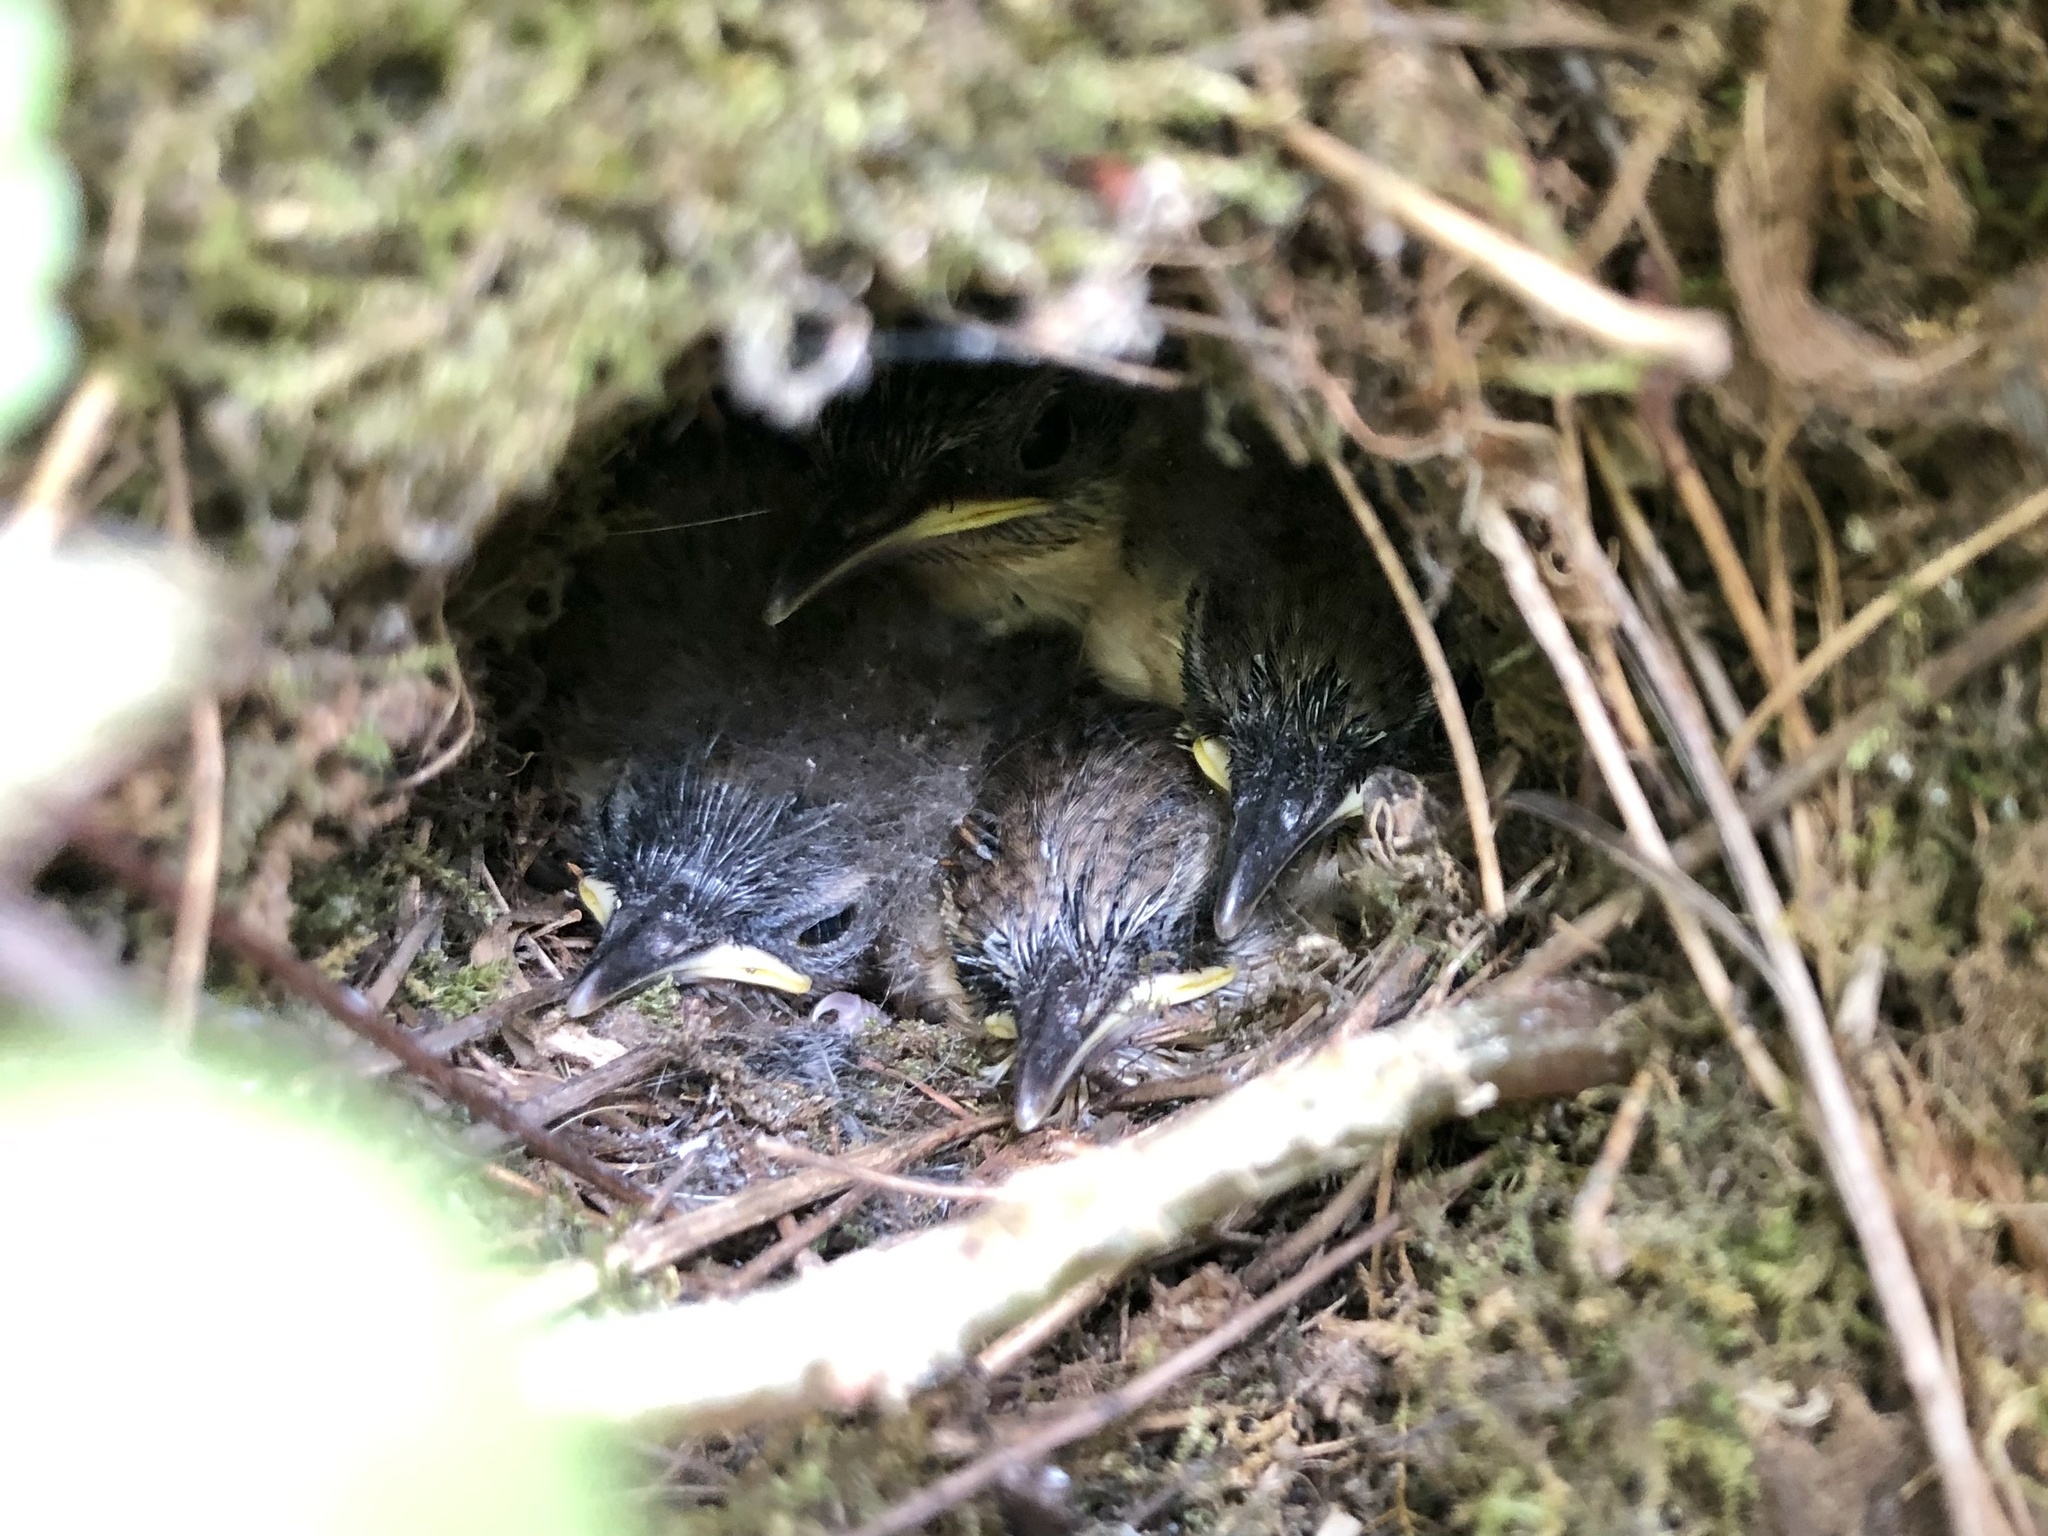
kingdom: Animalia
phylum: Chordata
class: Aves
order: Passeriformes
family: Troglodytidae
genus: Thryothorus
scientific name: Thryothorus ludovicianus
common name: Carolina wren
